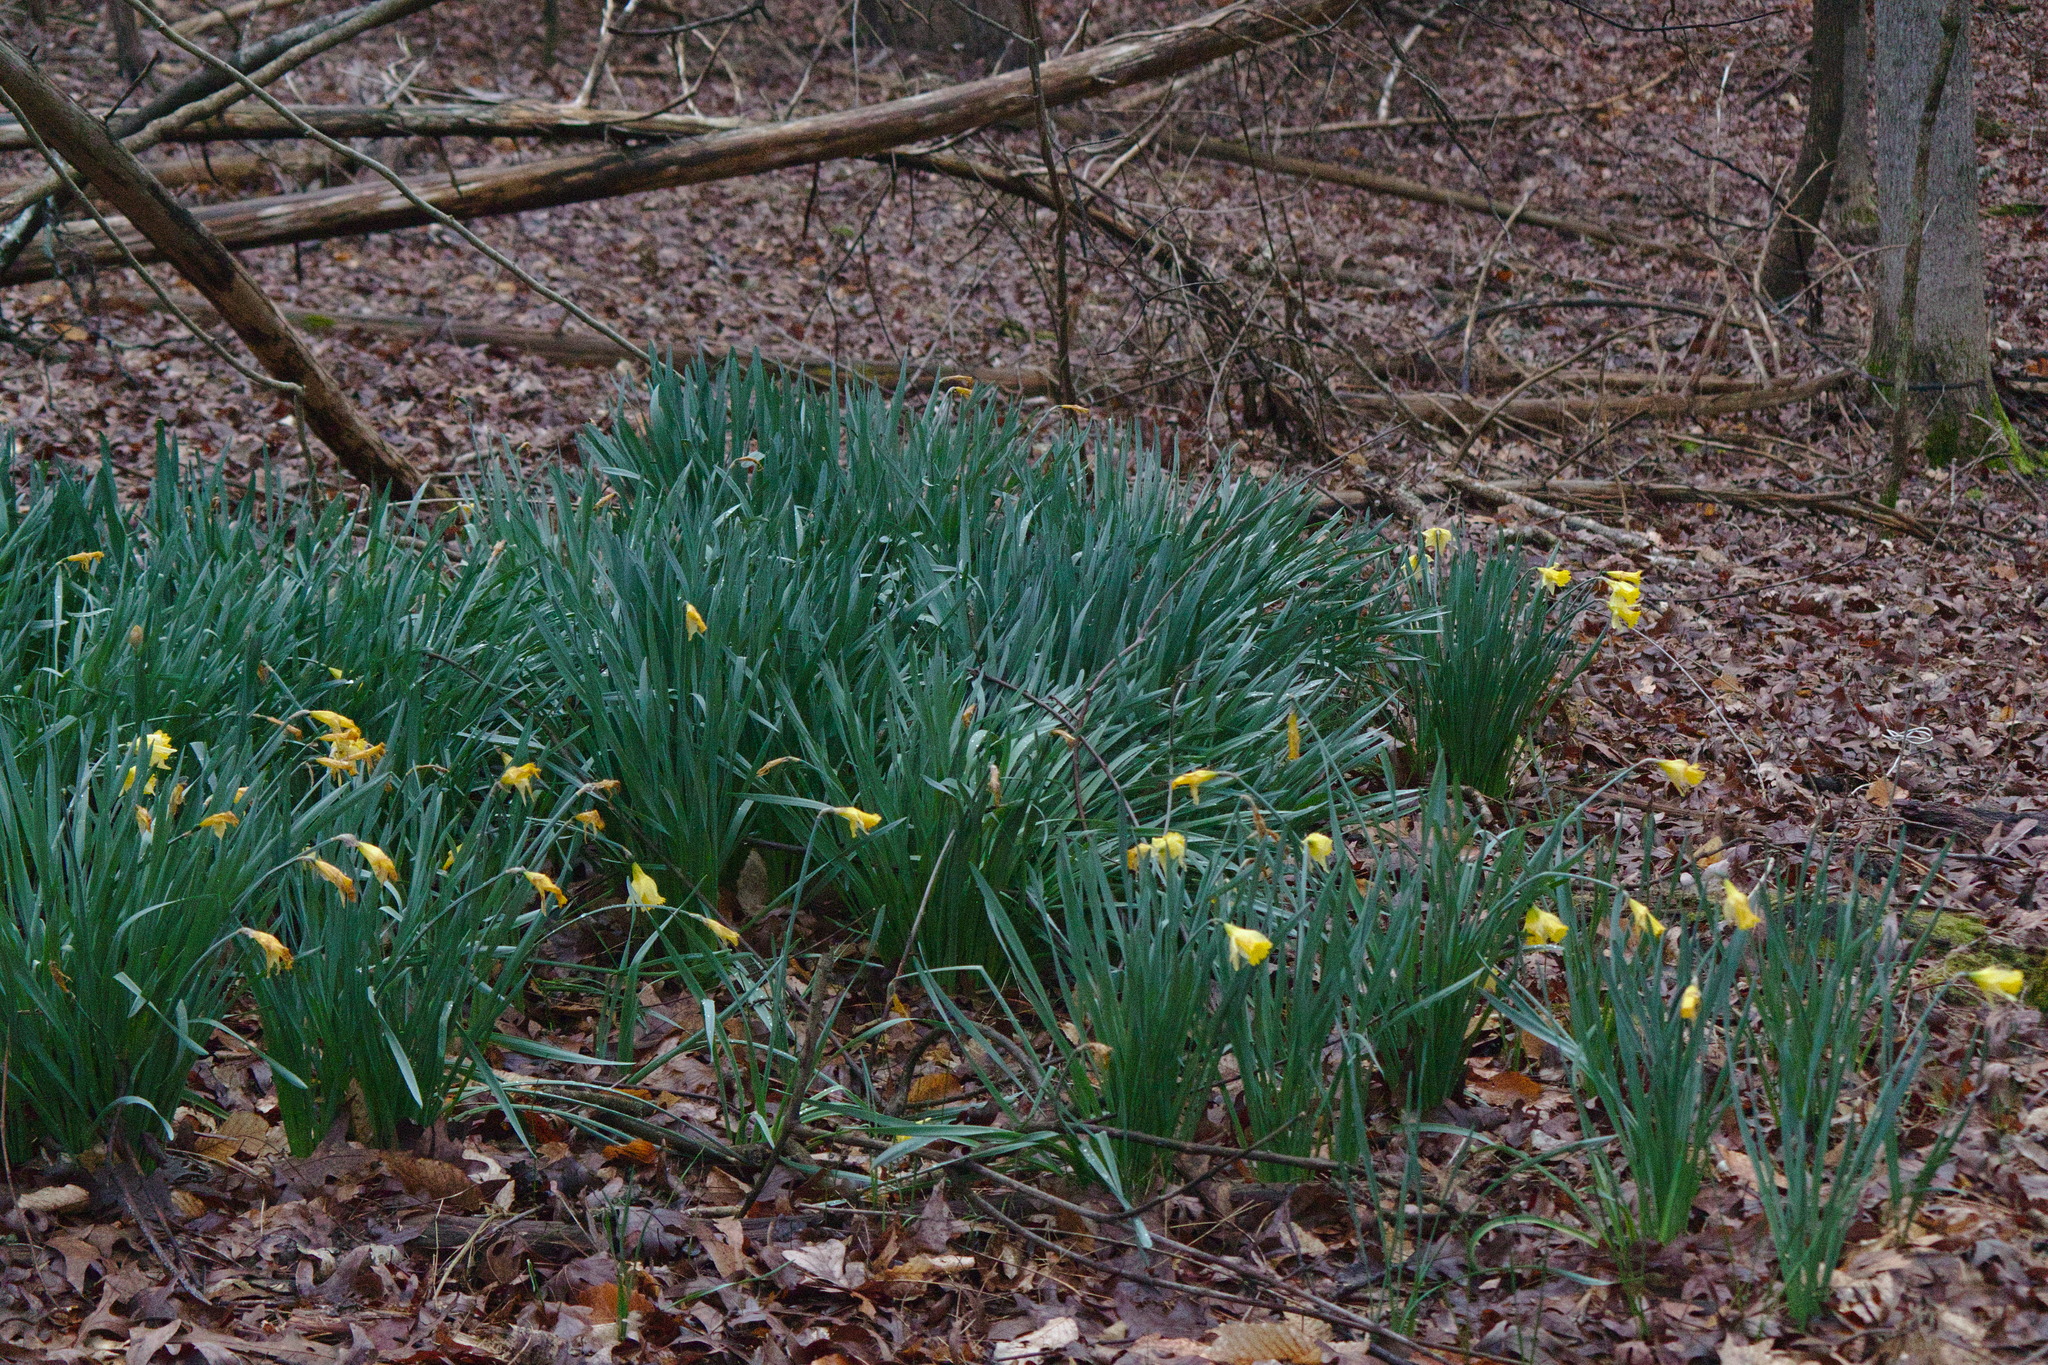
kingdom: Plantae
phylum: Tracheophyta
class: Liliopsida
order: Asparagales
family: Amaryllidaceae
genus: Narcissus
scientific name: Narcissus pseudonarcissus
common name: Daffodil
